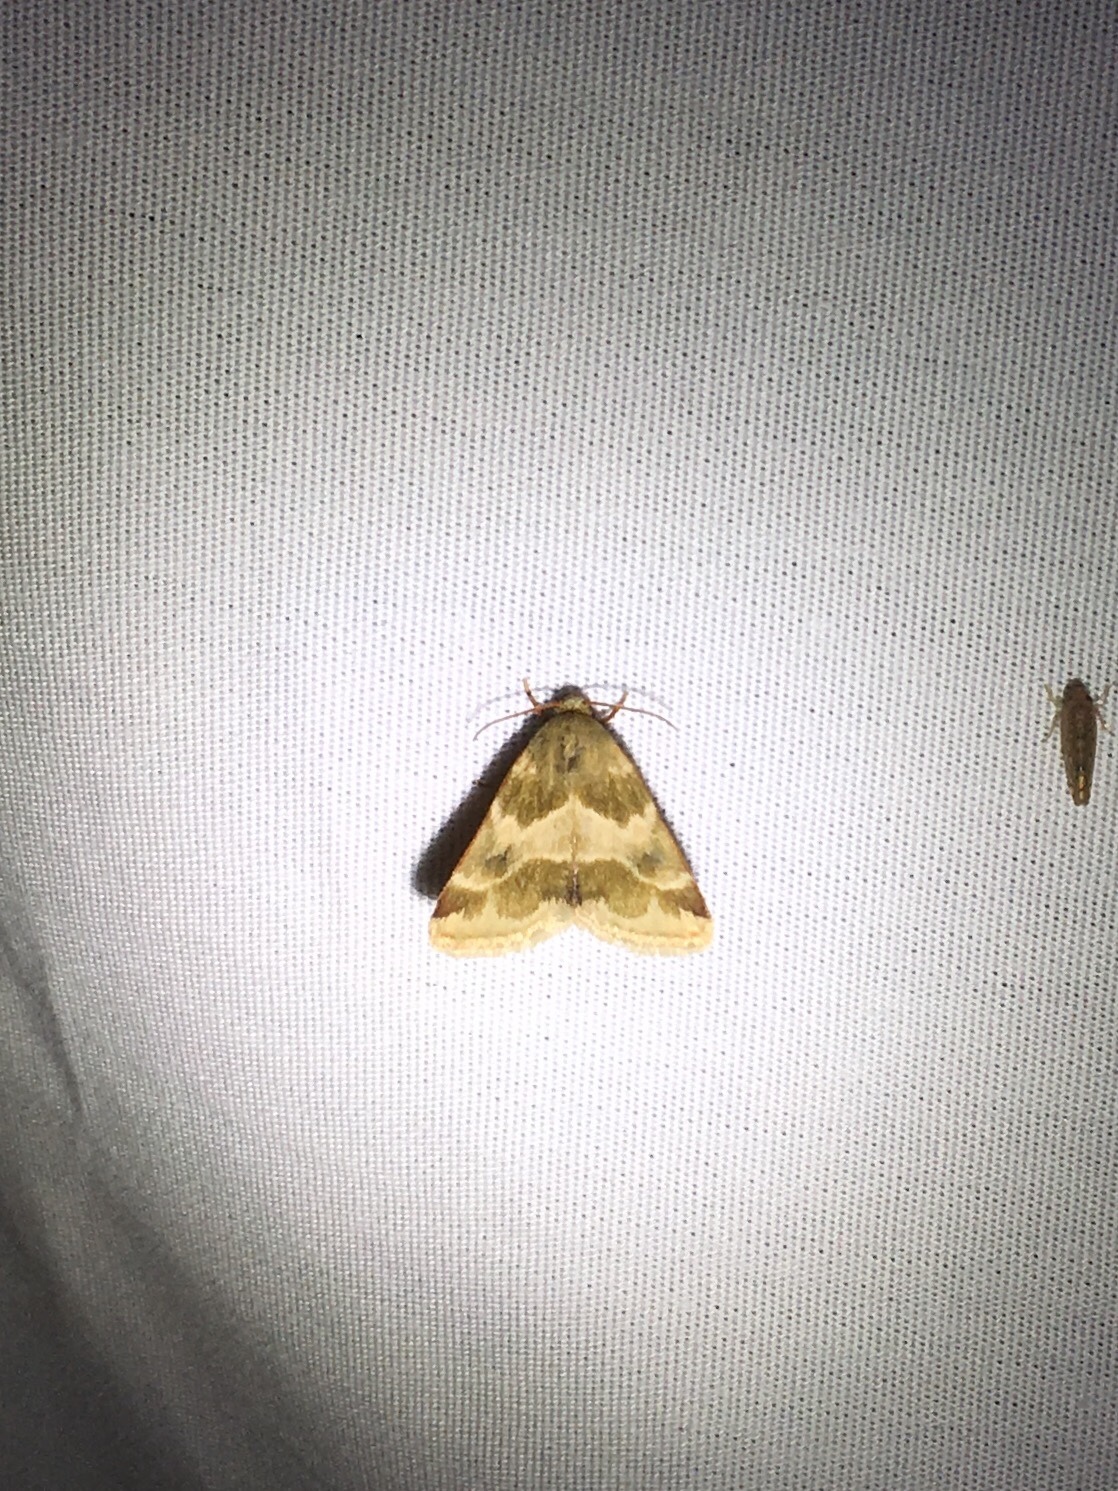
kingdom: Animalia
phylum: Arthropoda
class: Insecta
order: Lepidoptera
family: Noctuidae
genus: Schinia
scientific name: Schinia lynx
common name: Lynx flower moth
